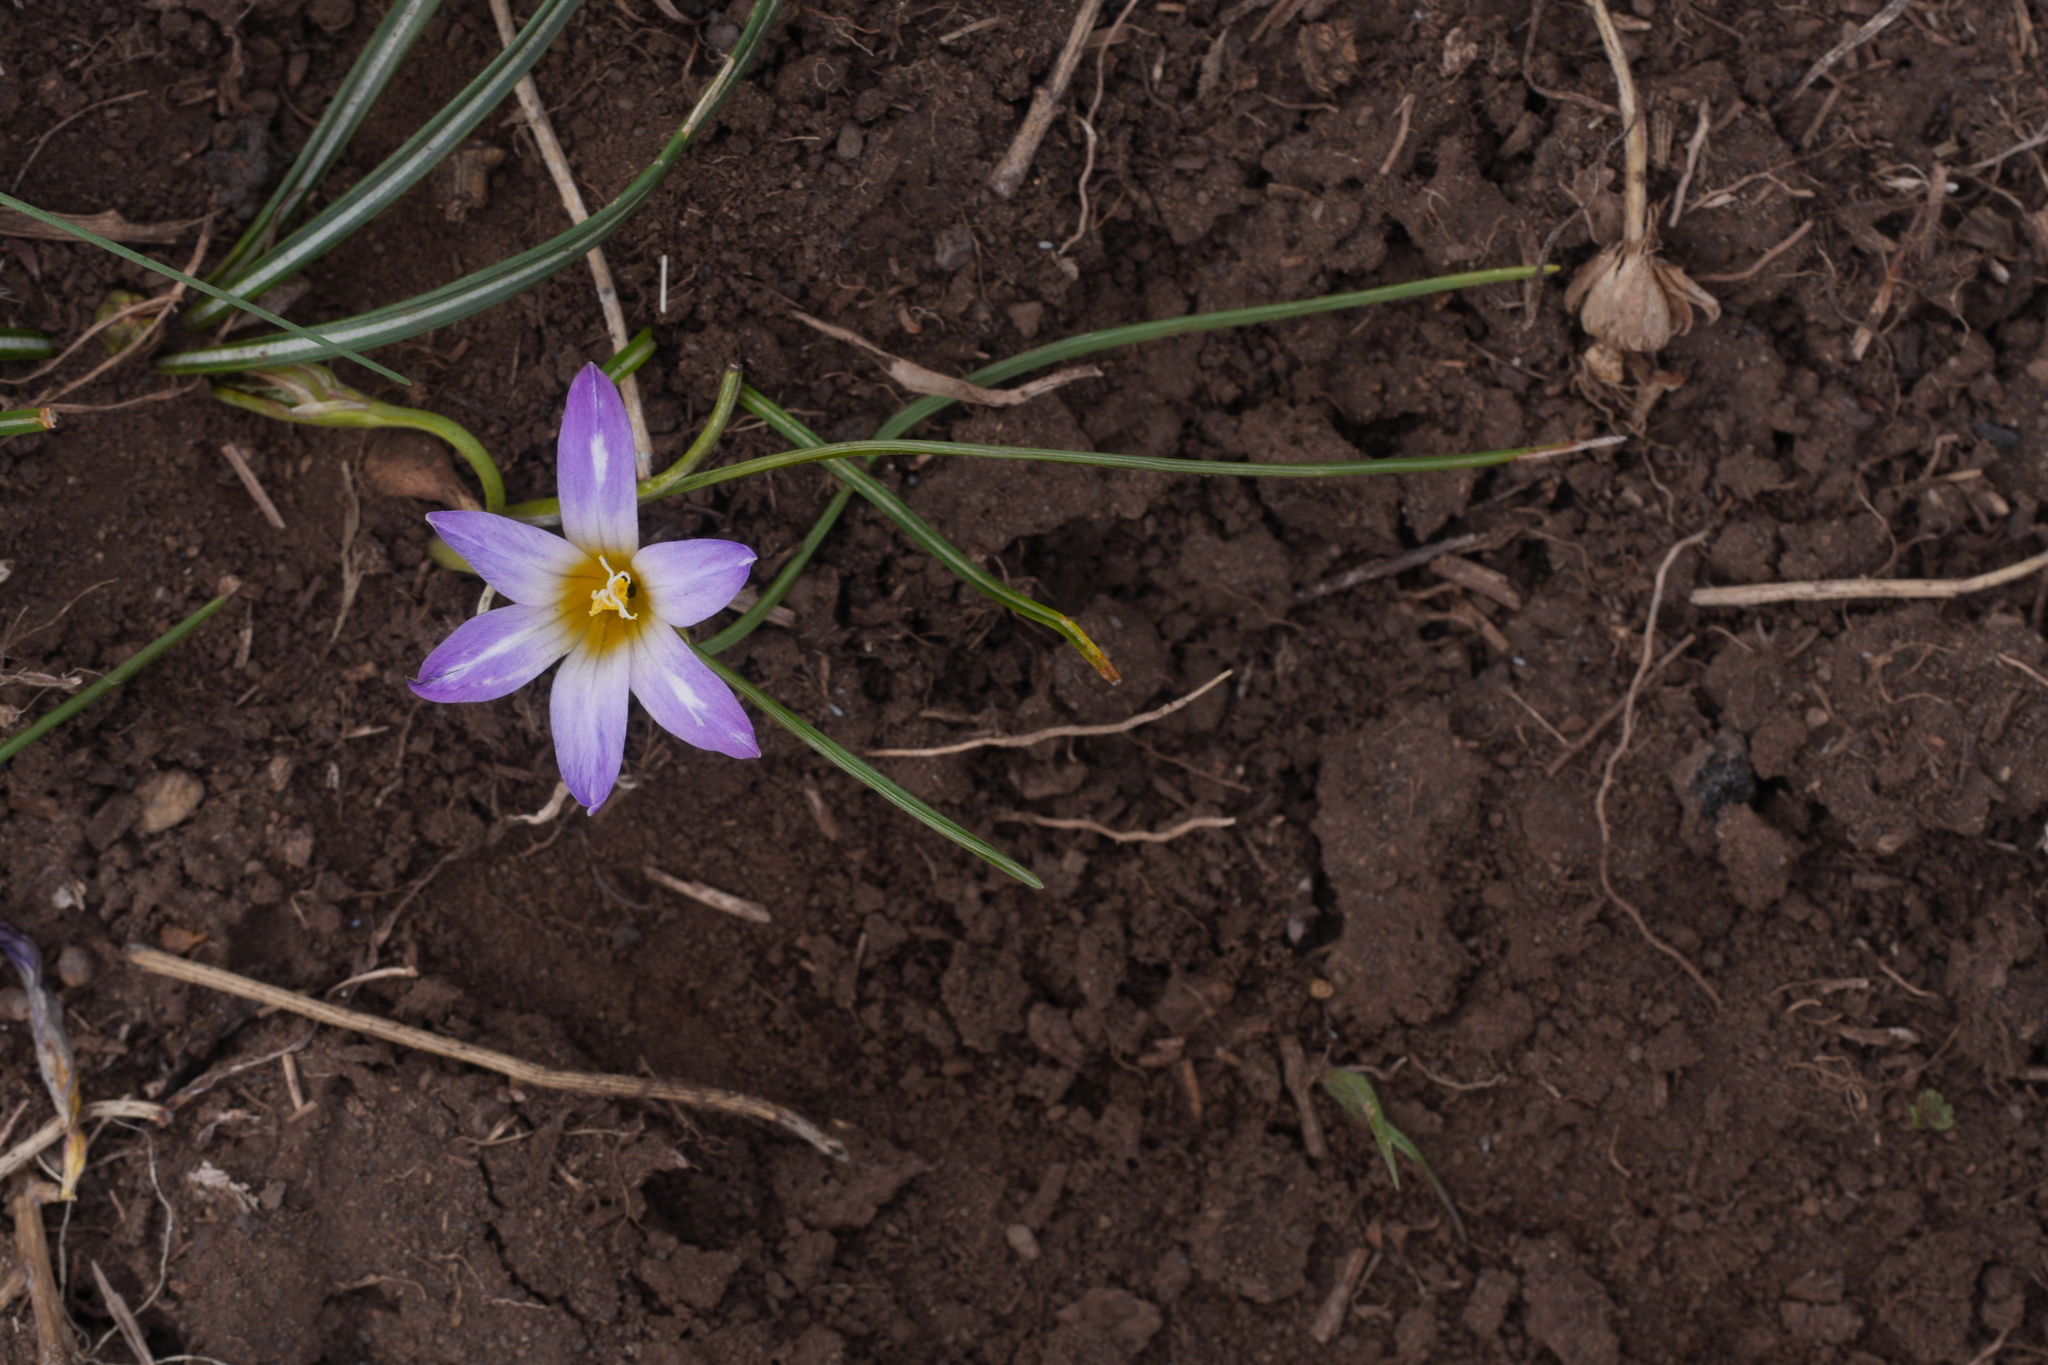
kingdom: Plantae
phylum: Tracheophyta
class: Liliopsida
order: Asparagales
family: Iridaceae
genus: Romulea
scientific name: Romulea bulbocodium
